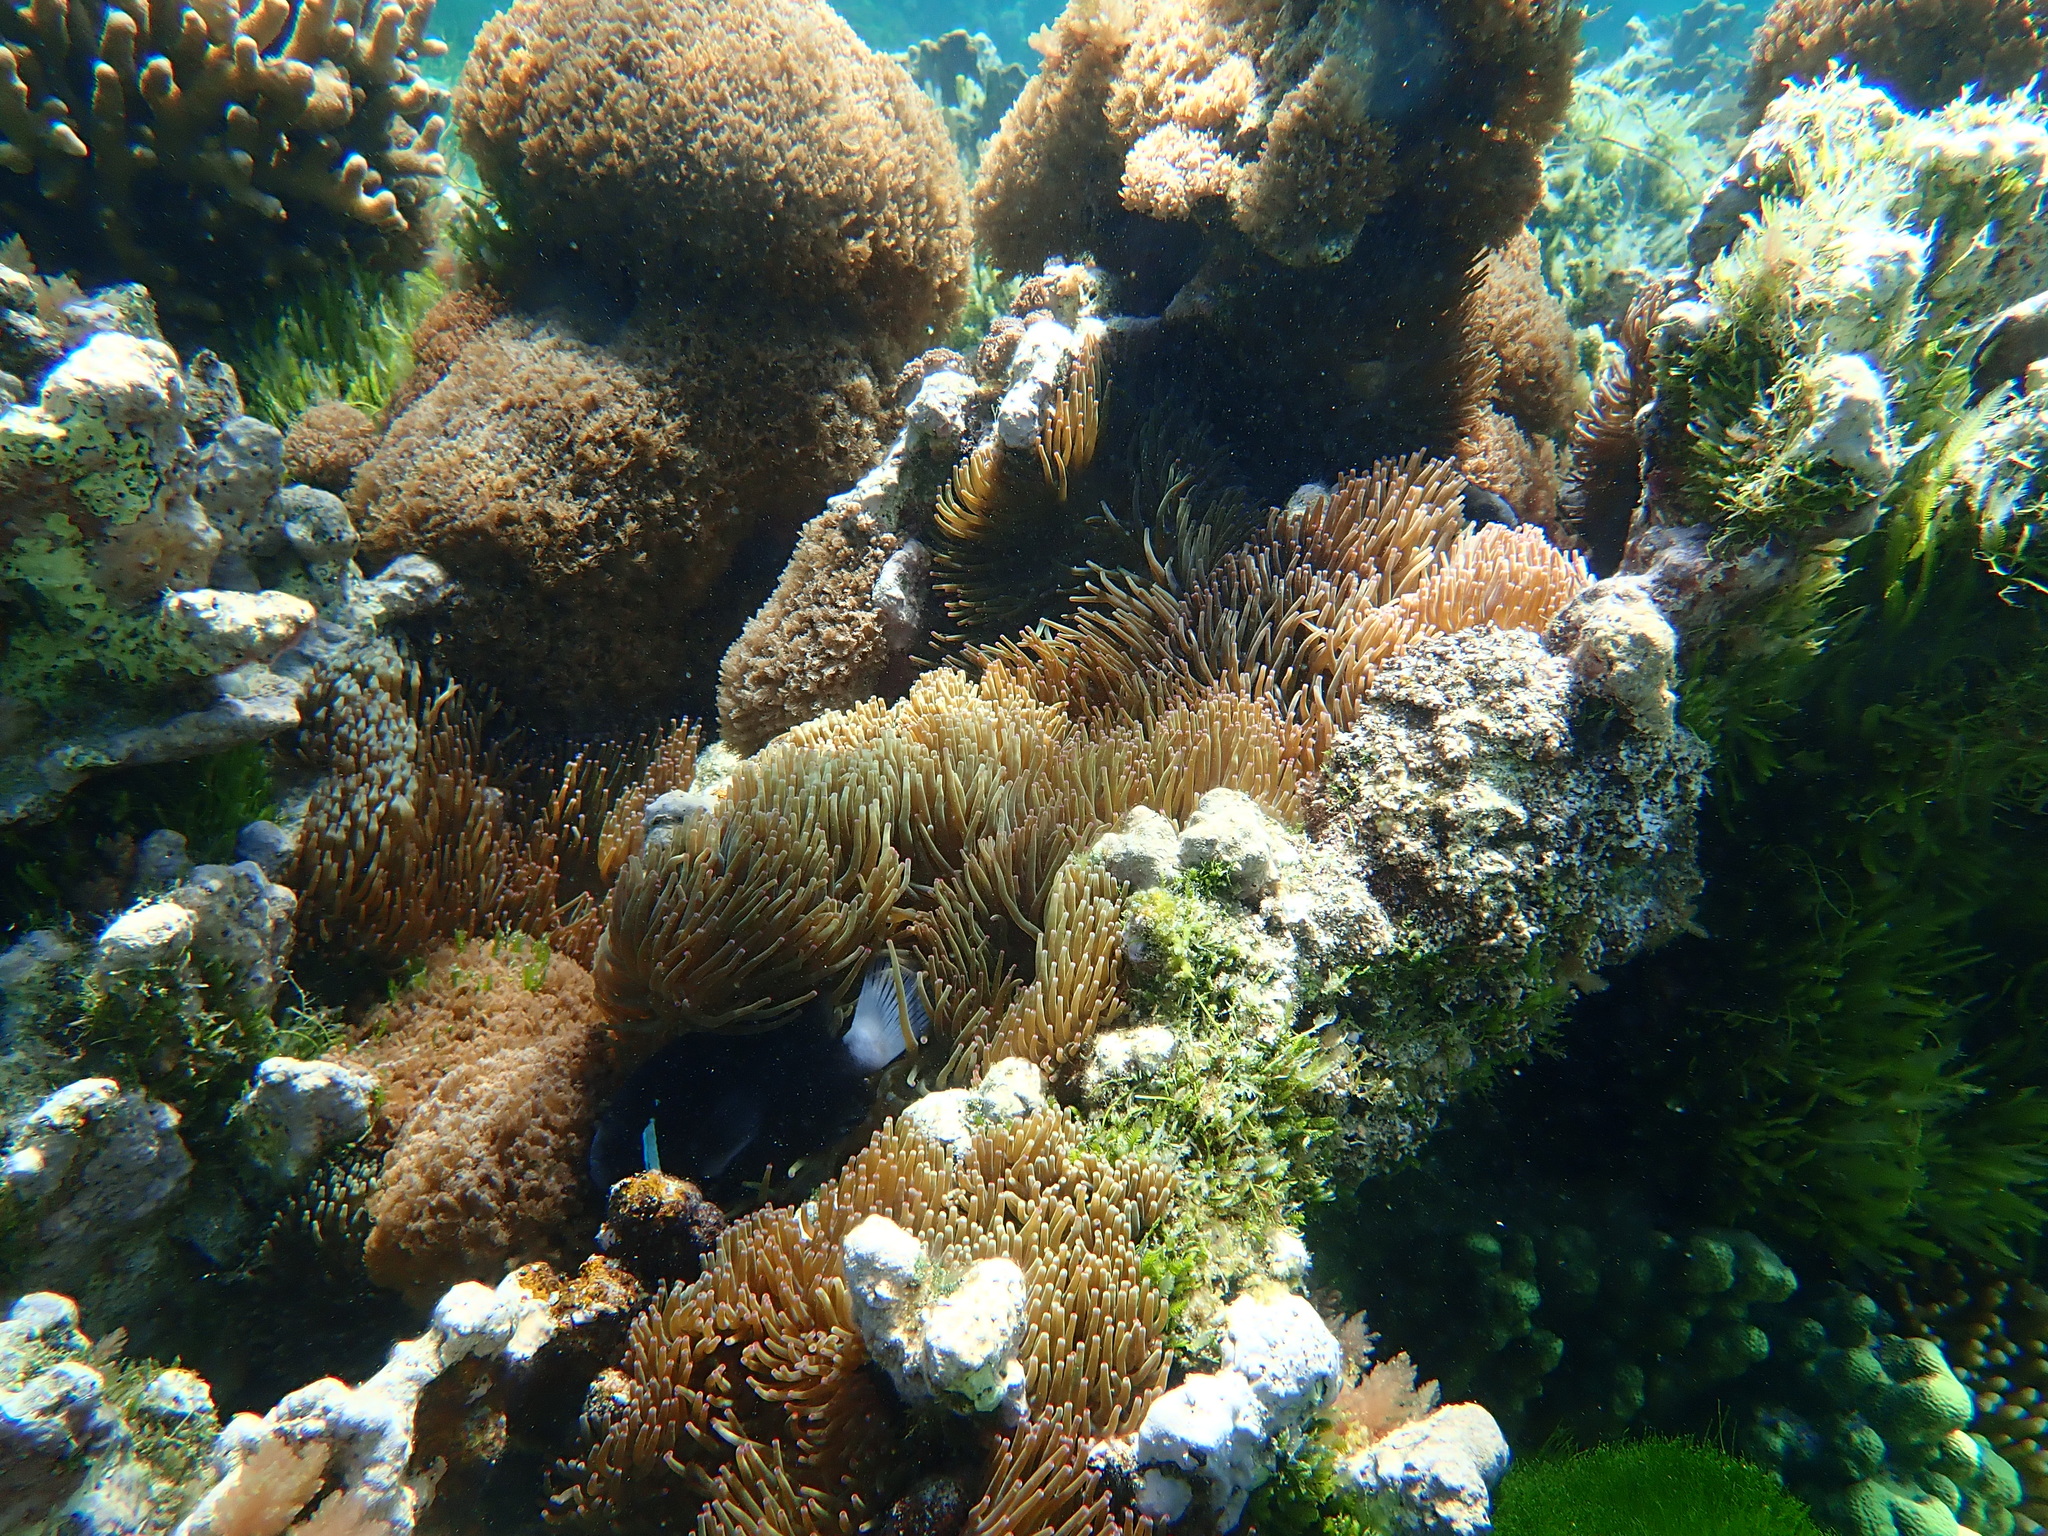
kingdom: Animalia
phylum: Chordata
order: Perciformes
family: Pomacentridae
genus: Amphiprion
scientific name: Amphiprion mccullochi
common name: Mcculloch's anemonefish
